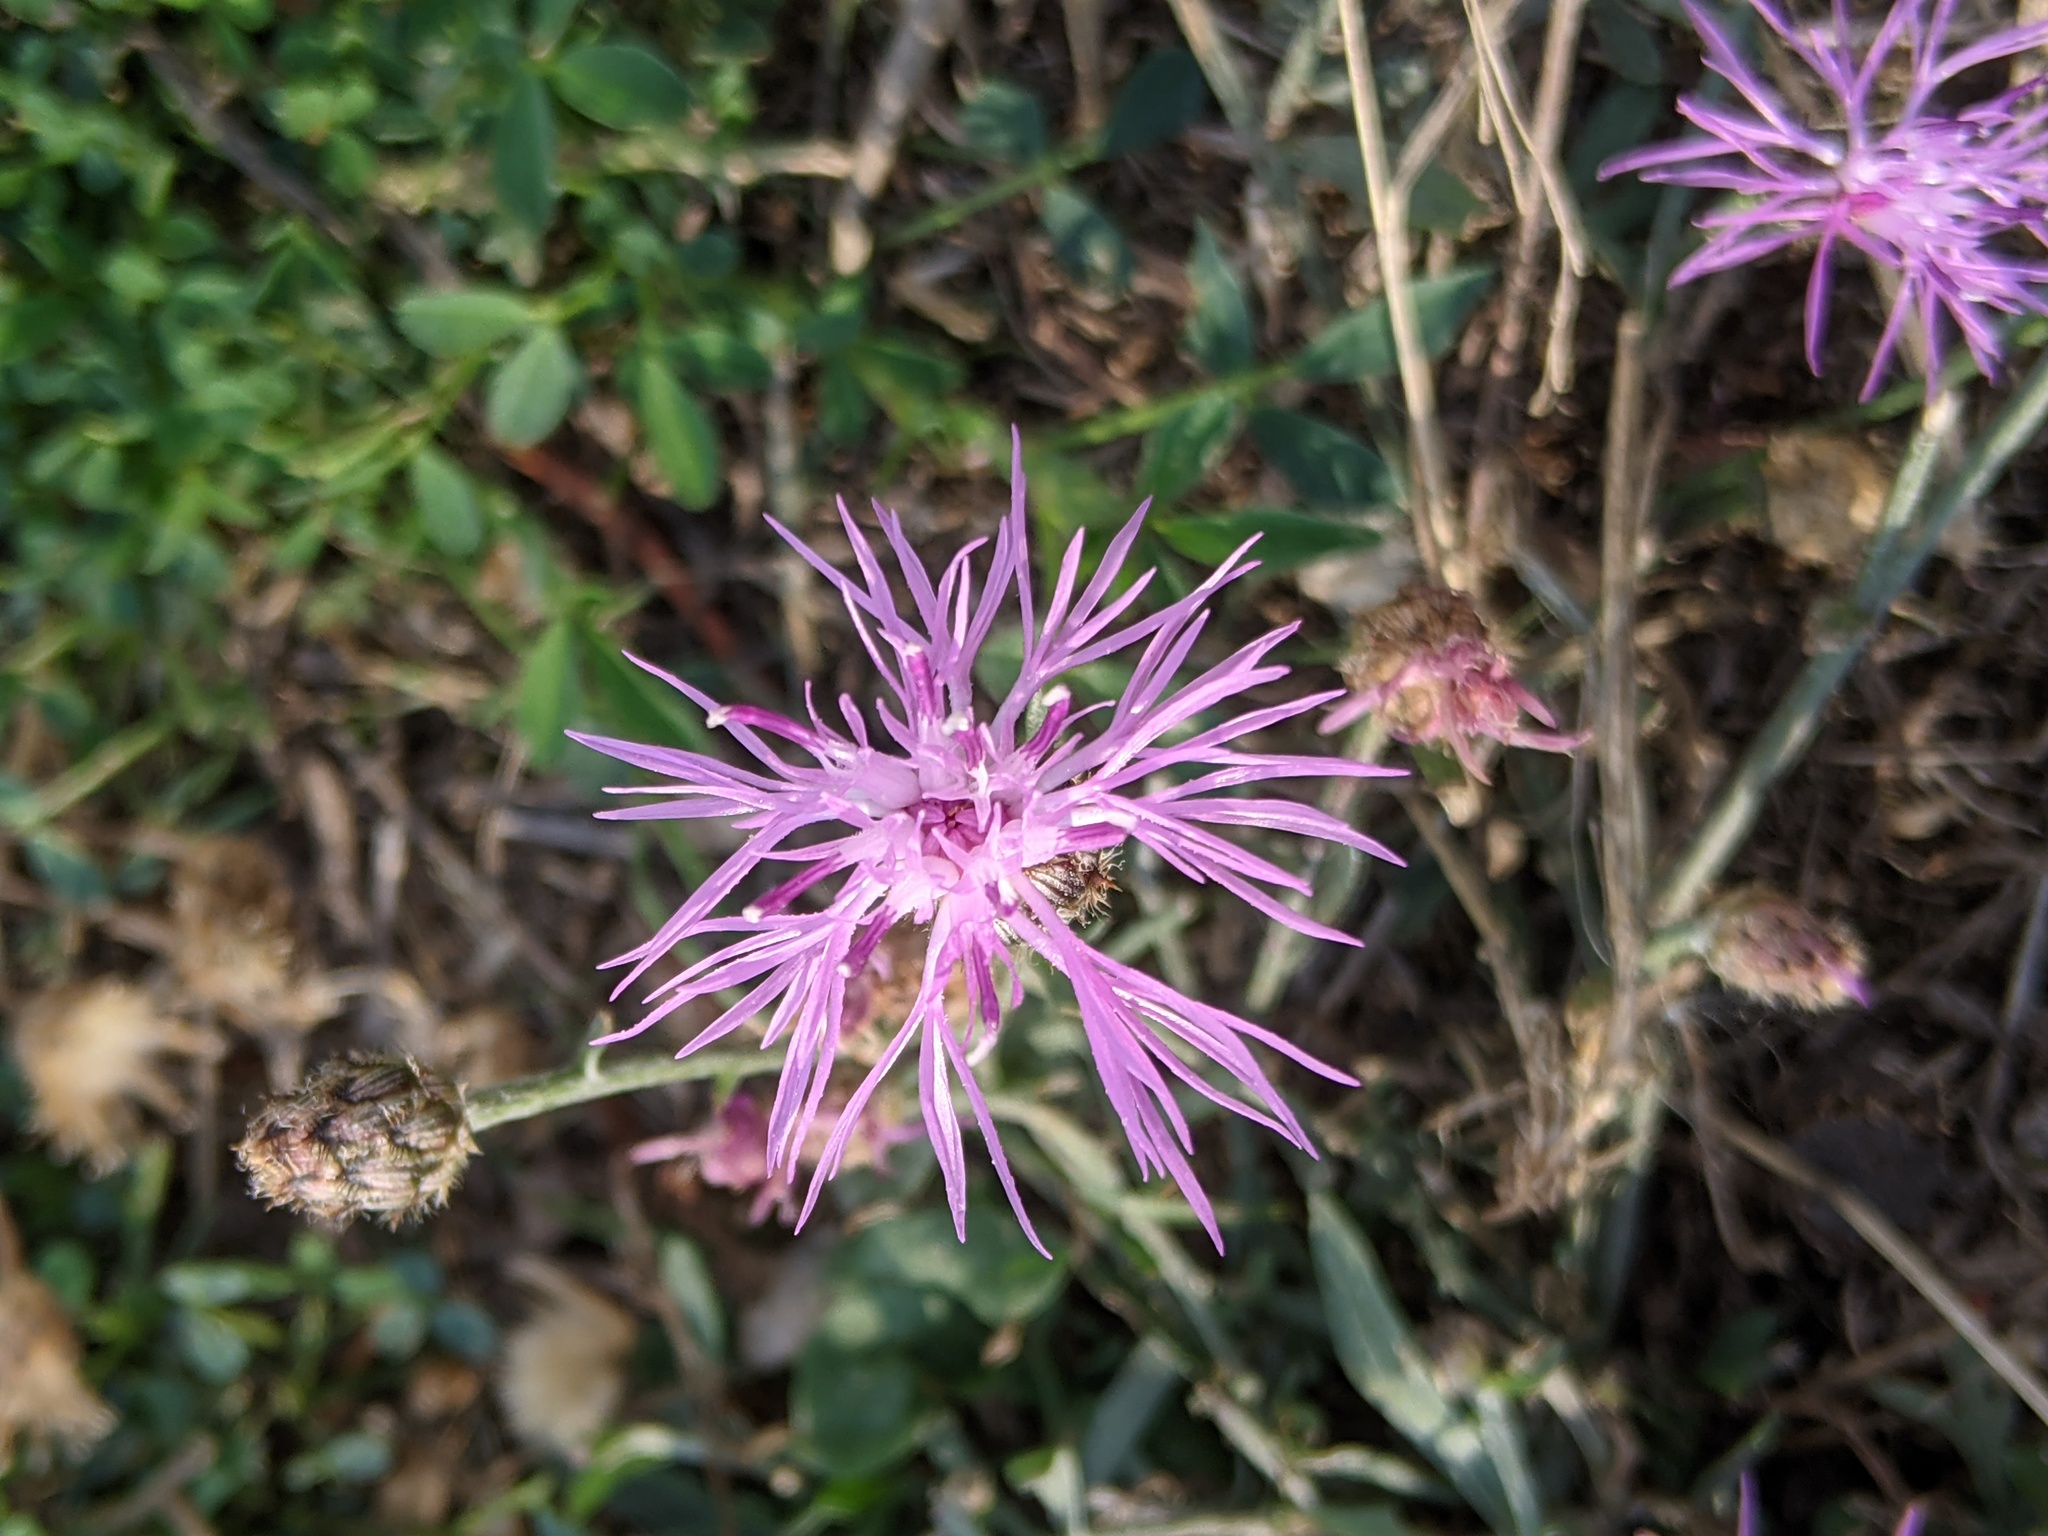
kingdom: Plantae
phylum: Tracheophyta
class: Magnoliopsida
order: Asterales
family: Asteraceae
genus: Centaurea
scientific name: Centaurea stoebe
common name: Spotted knapweed
